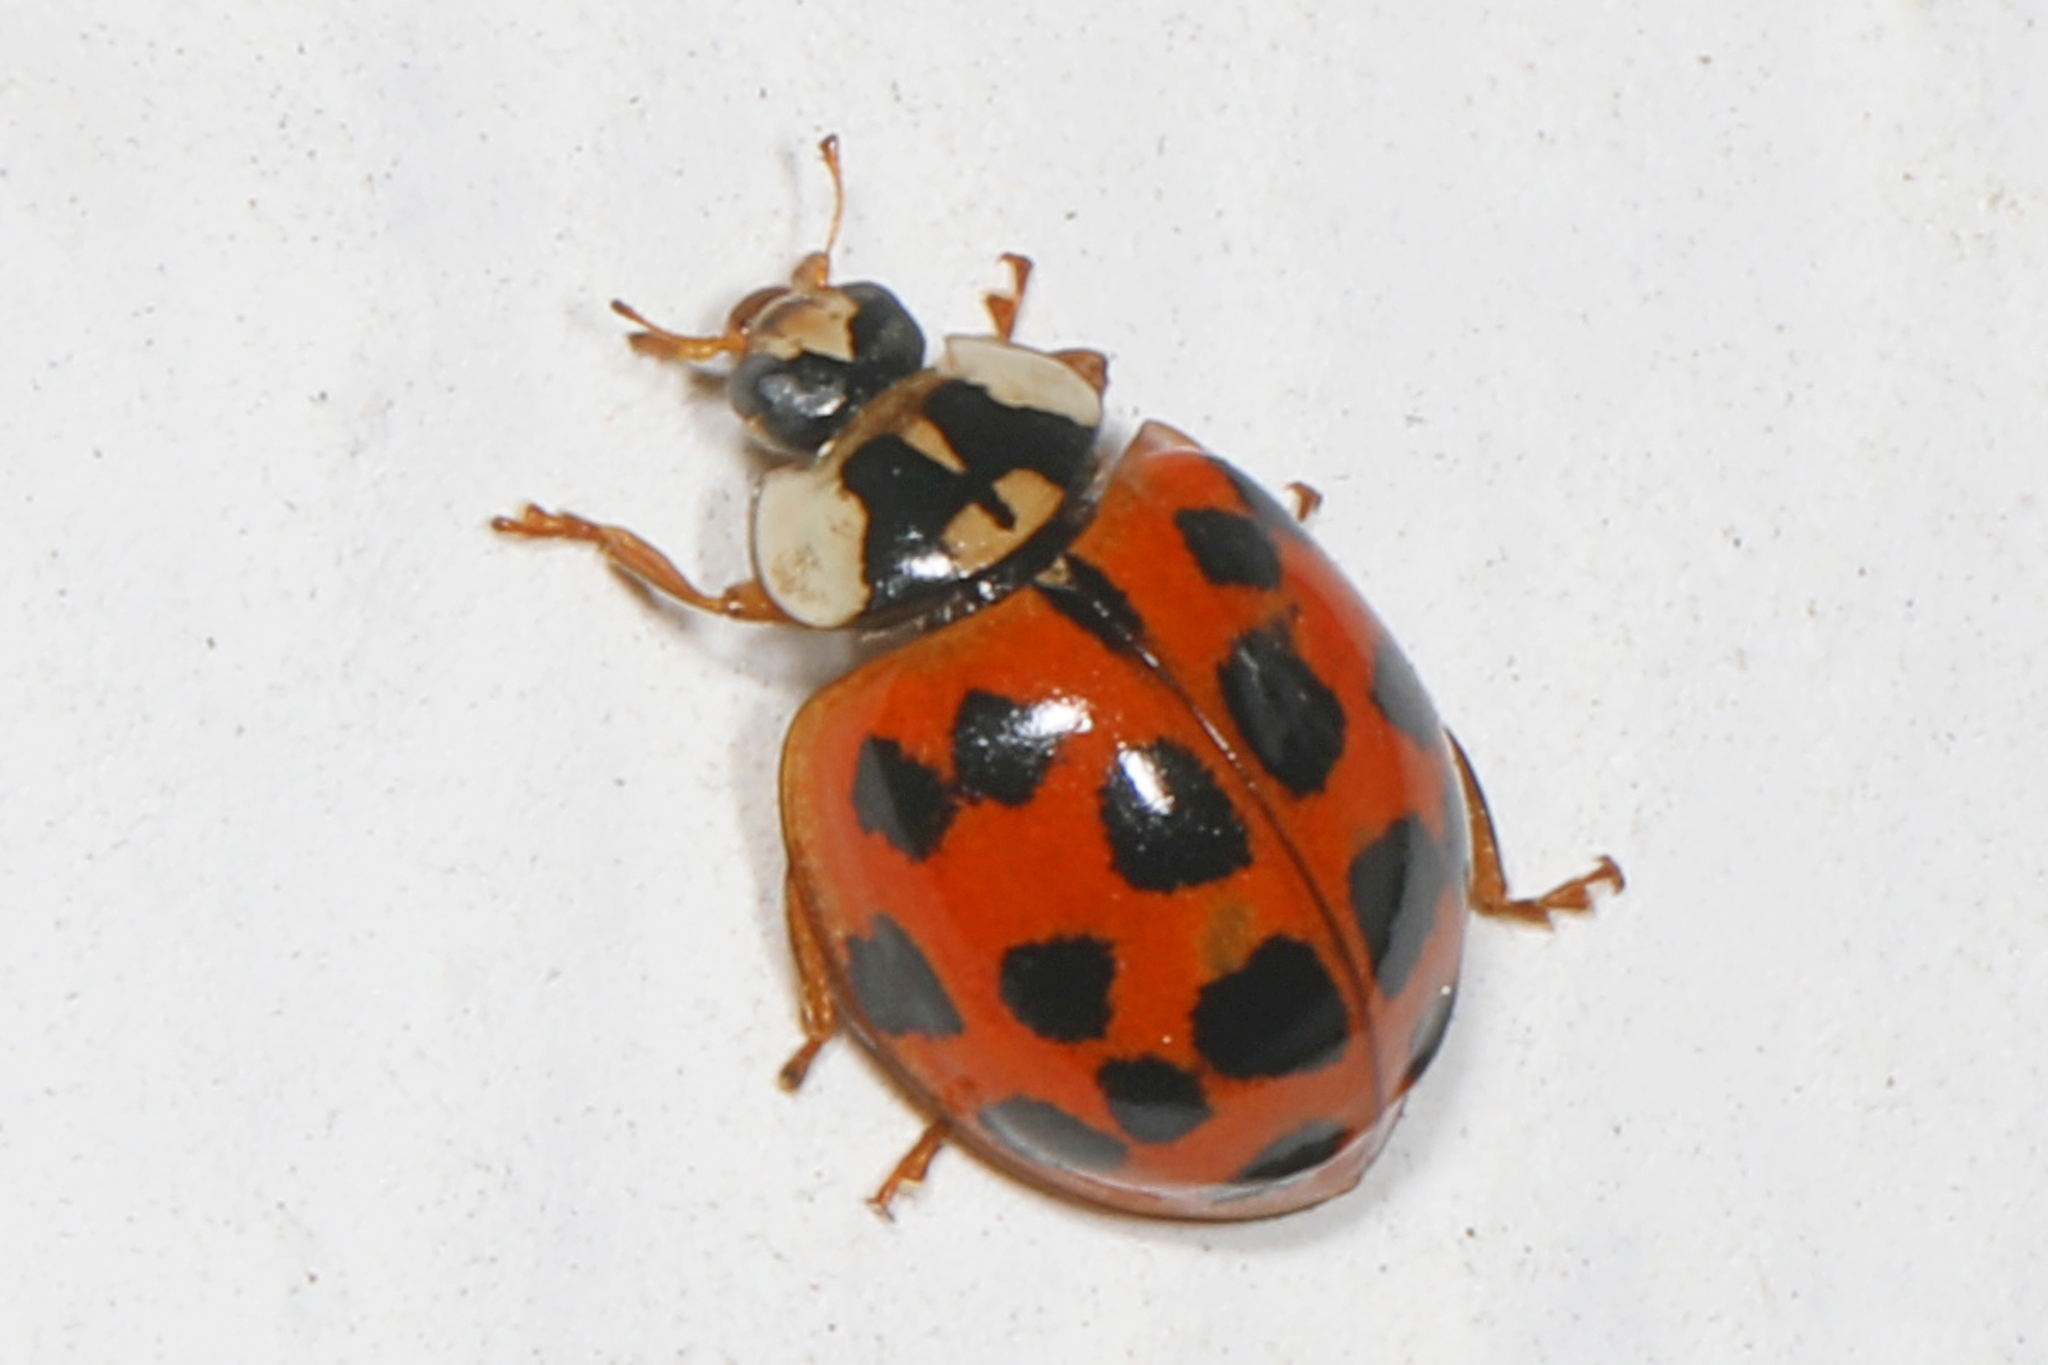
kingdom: Animalia
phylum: Arthropoda
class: Insecta
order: Coleoptera
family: Coccinellidae
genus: Harmonia
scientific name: Harmonia axyridis
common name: Harlequin ladybird
